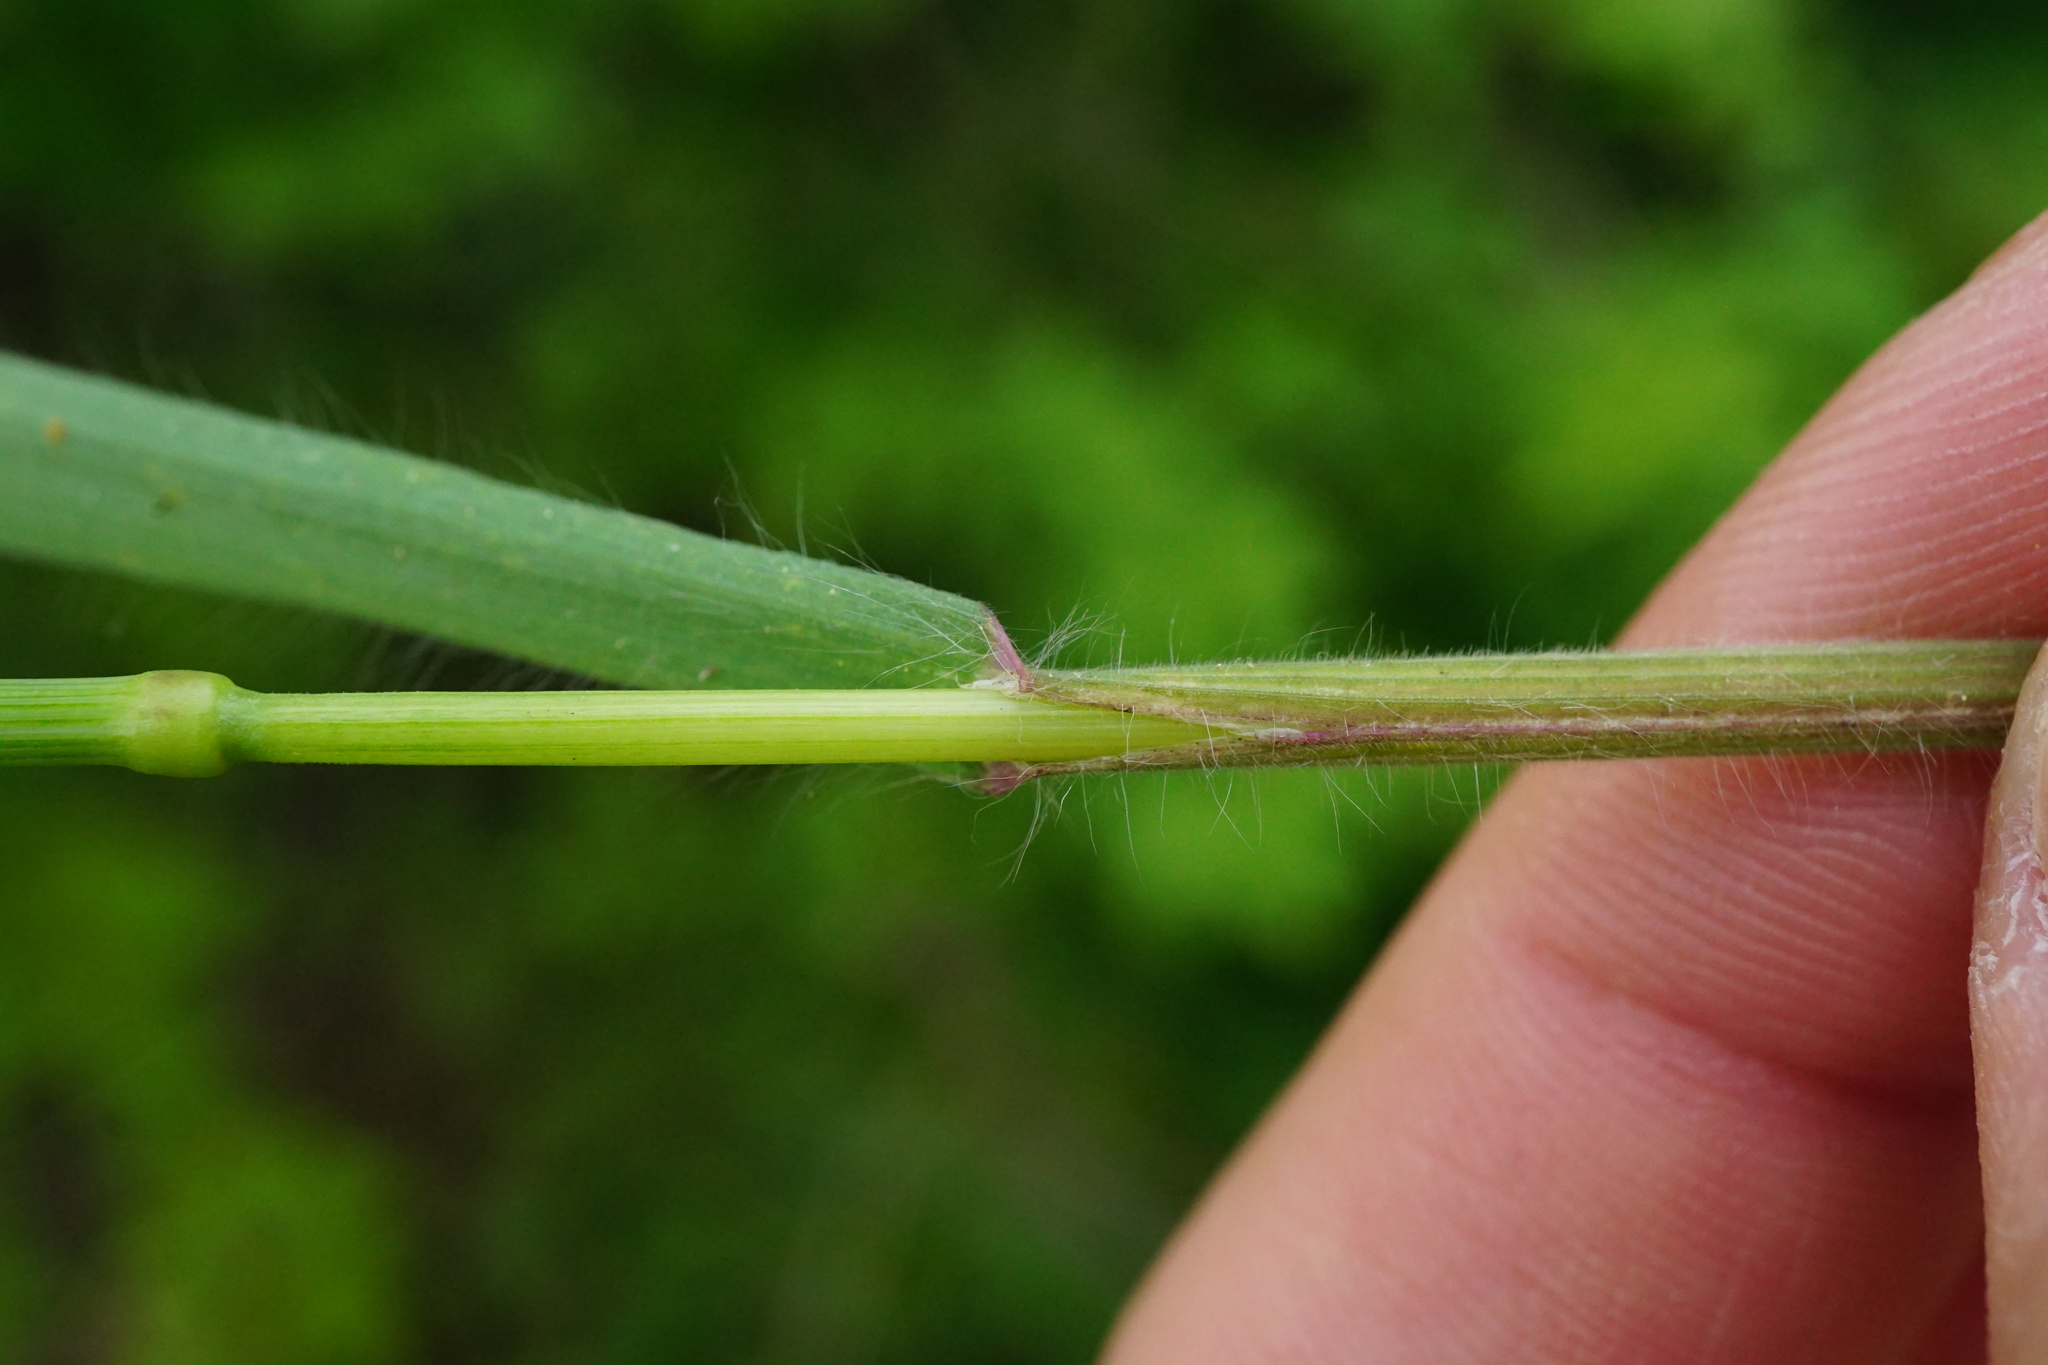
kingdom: Plantae
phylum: Tracheophyta
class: Liliopsida
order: Poales
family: Poaceae
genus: Bromus
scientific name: Bromus sterilis
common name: Poverty brome
